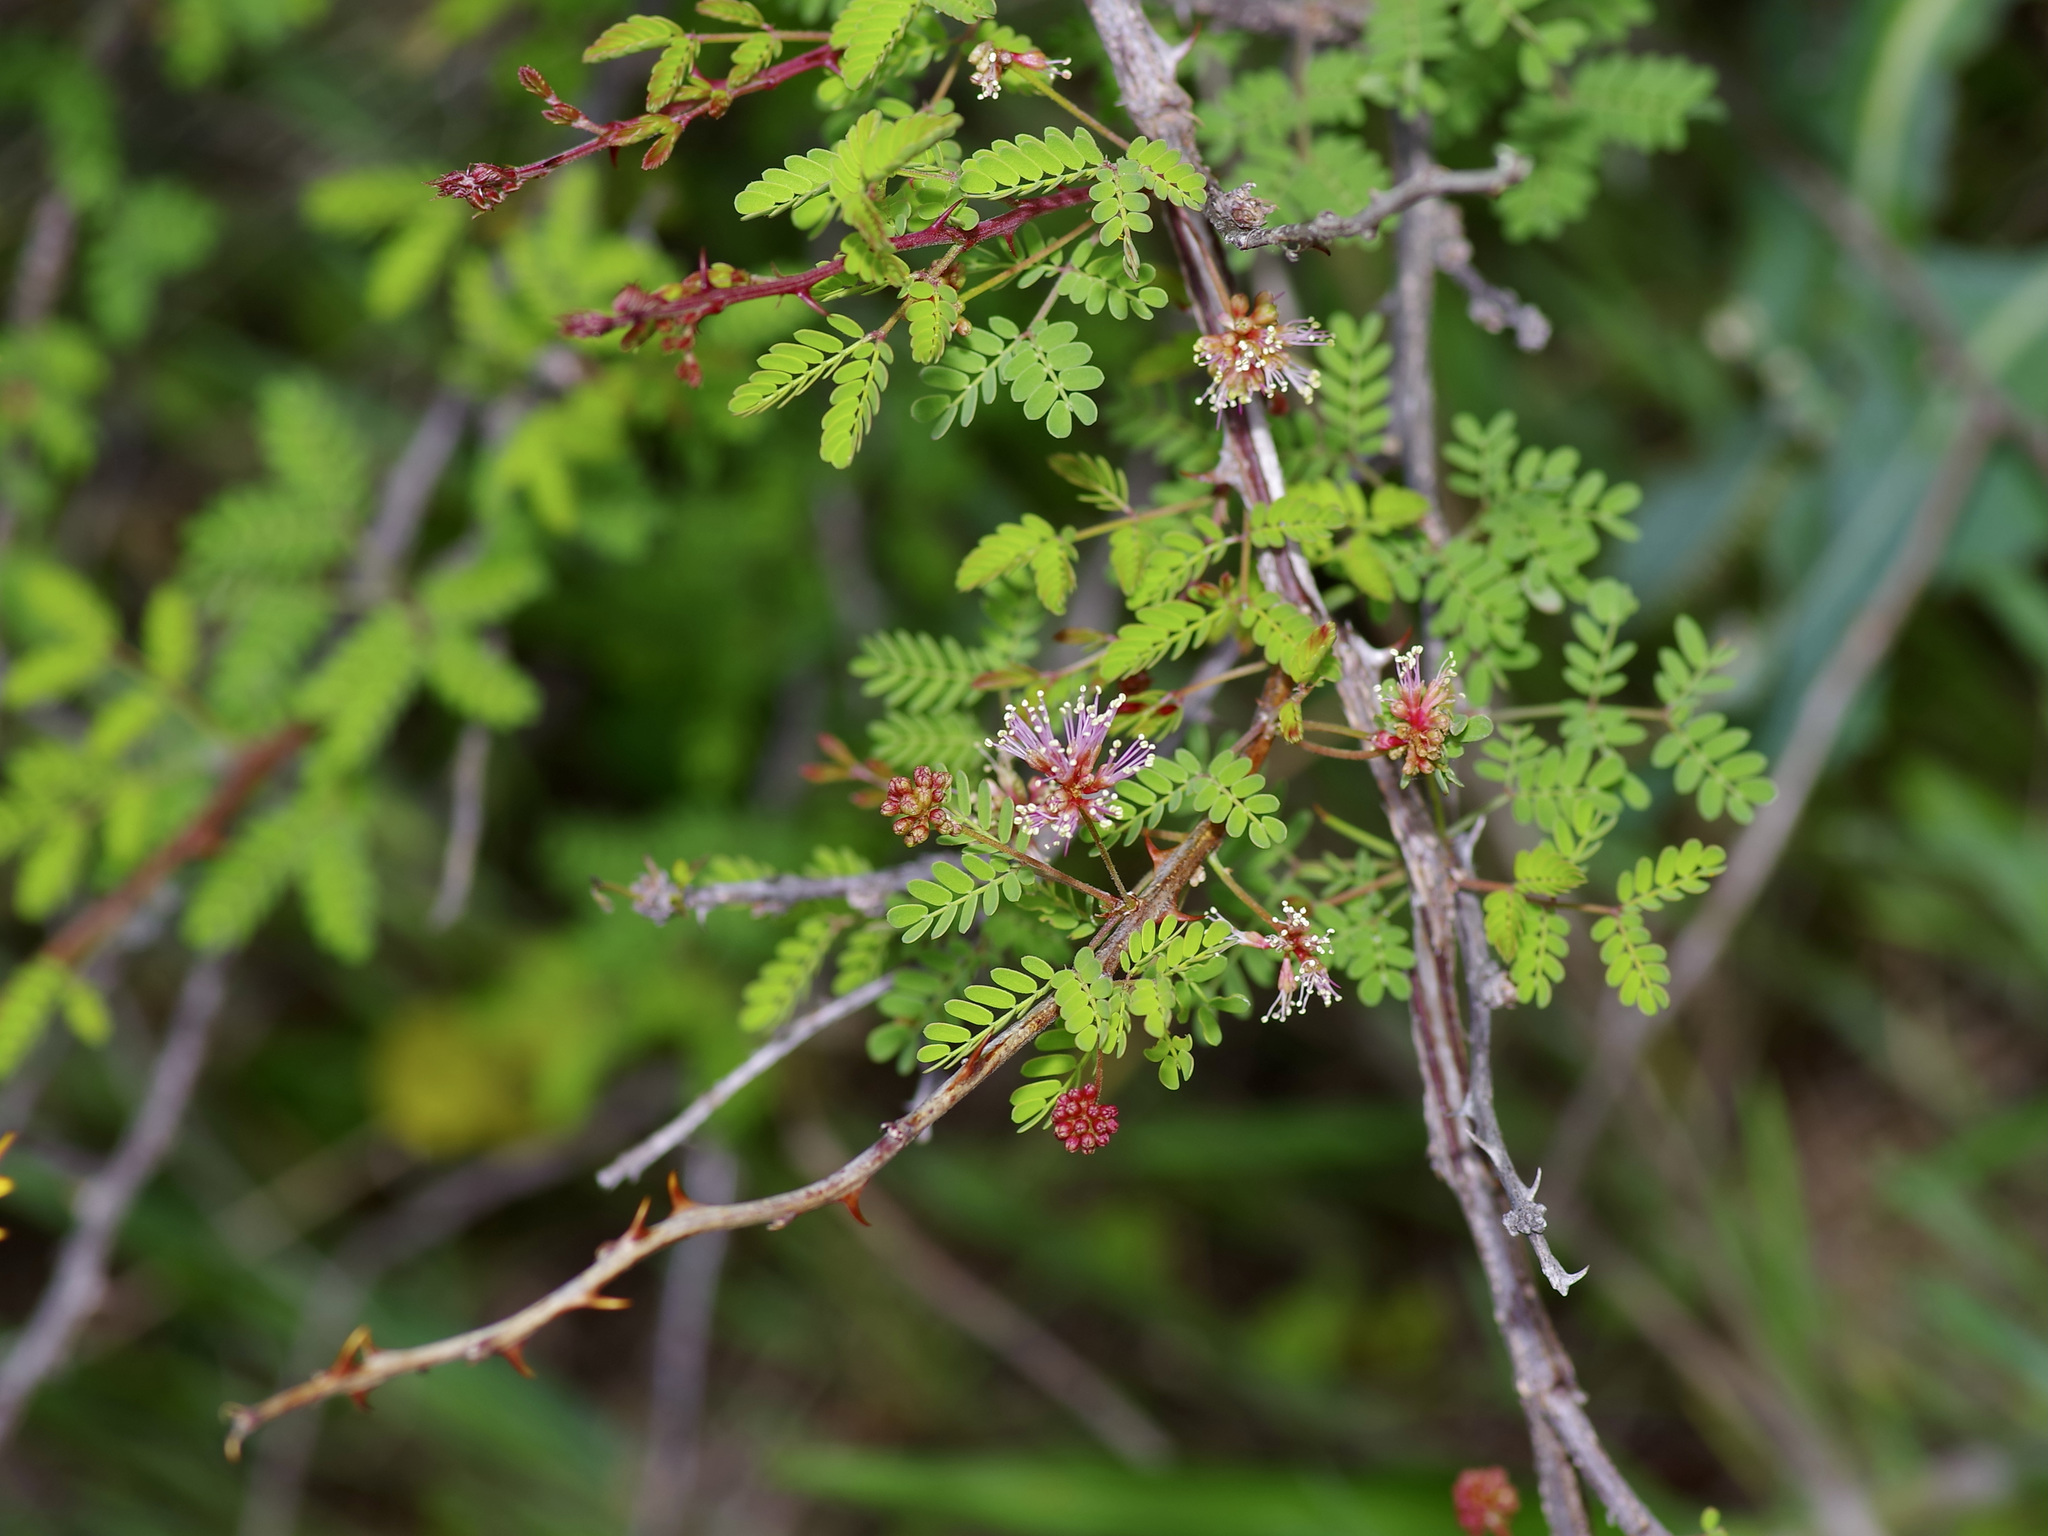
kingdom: Plantae
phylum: Tracheophyta
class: Magnoliopsida
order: Fabales
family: Fabaceae
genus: Senegalia
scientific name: Senegalia roemeriana
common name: Roemer's acacia
